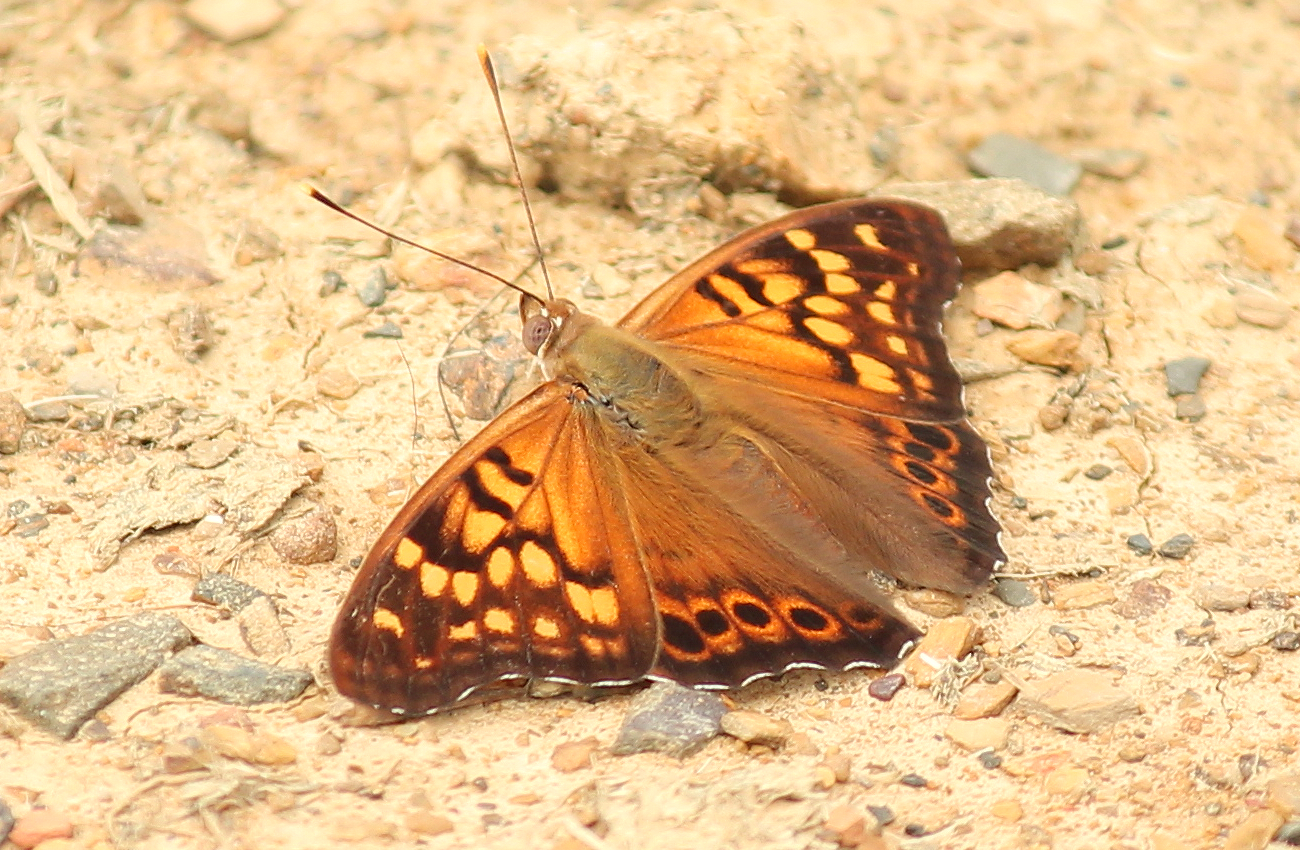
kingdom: Animalia
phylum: Arthropoda
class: Insecta
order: Lepidoptera
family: Nymphalidae
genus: Asterocampa
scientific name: Asterocampa clyton
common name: Tawny emperor
